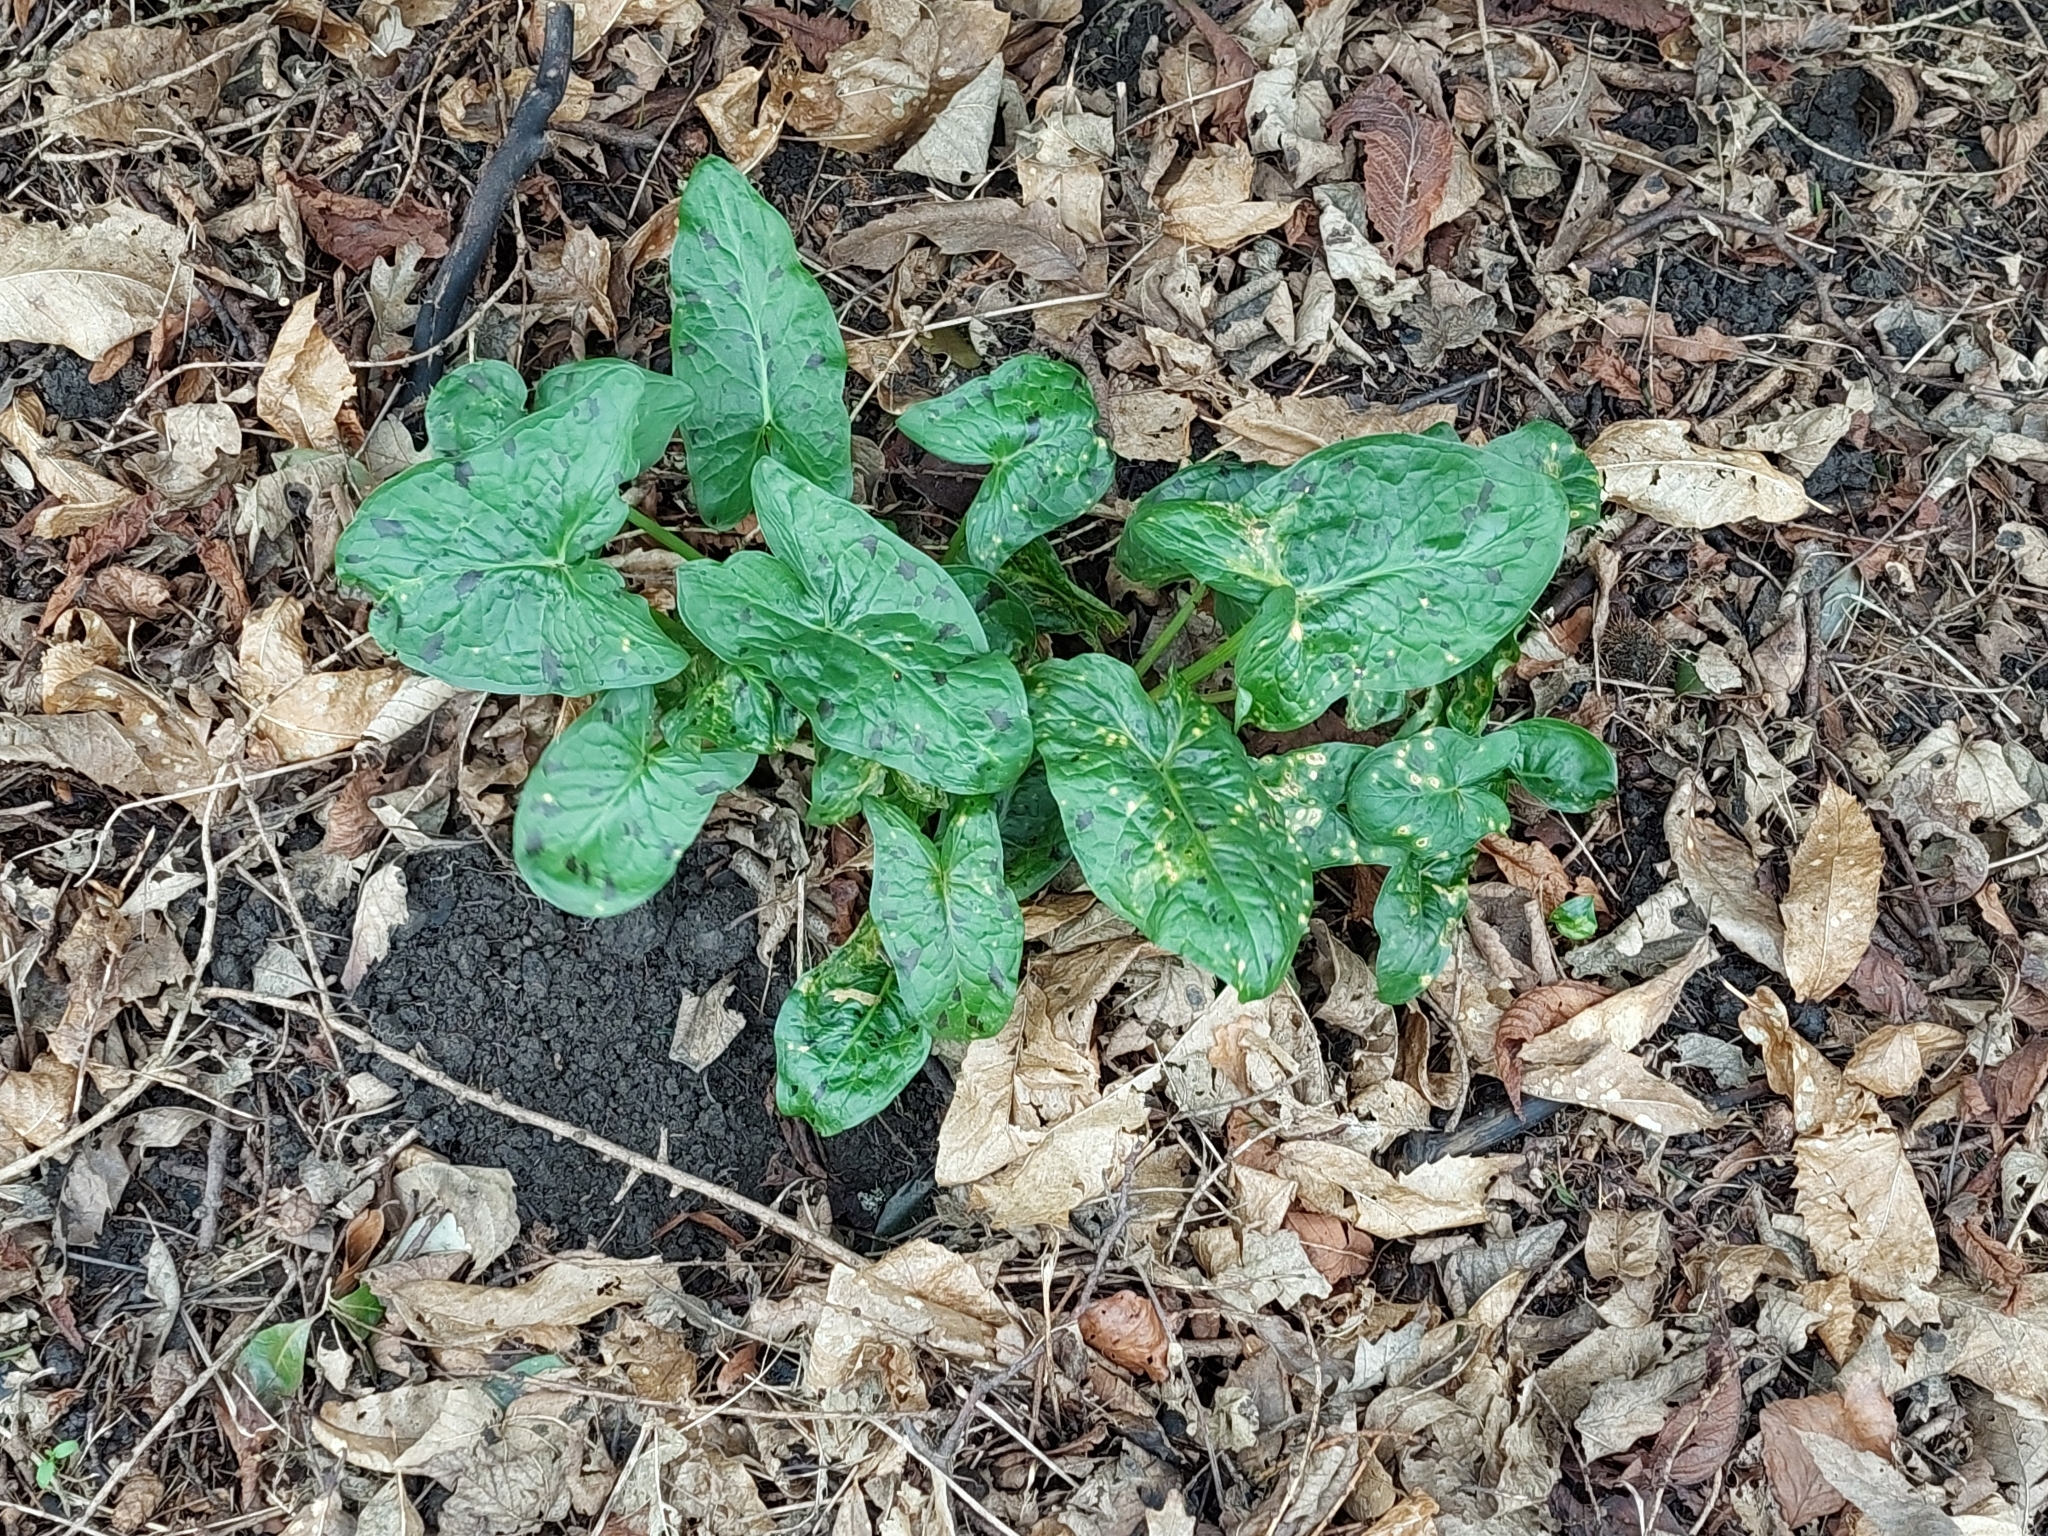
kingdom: Plantae
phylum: Tracheophyta
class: Liliopsida
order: Alismatales
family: Araceae
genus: Arum
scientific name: Arum maculatum
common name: Lords-and-ladies
